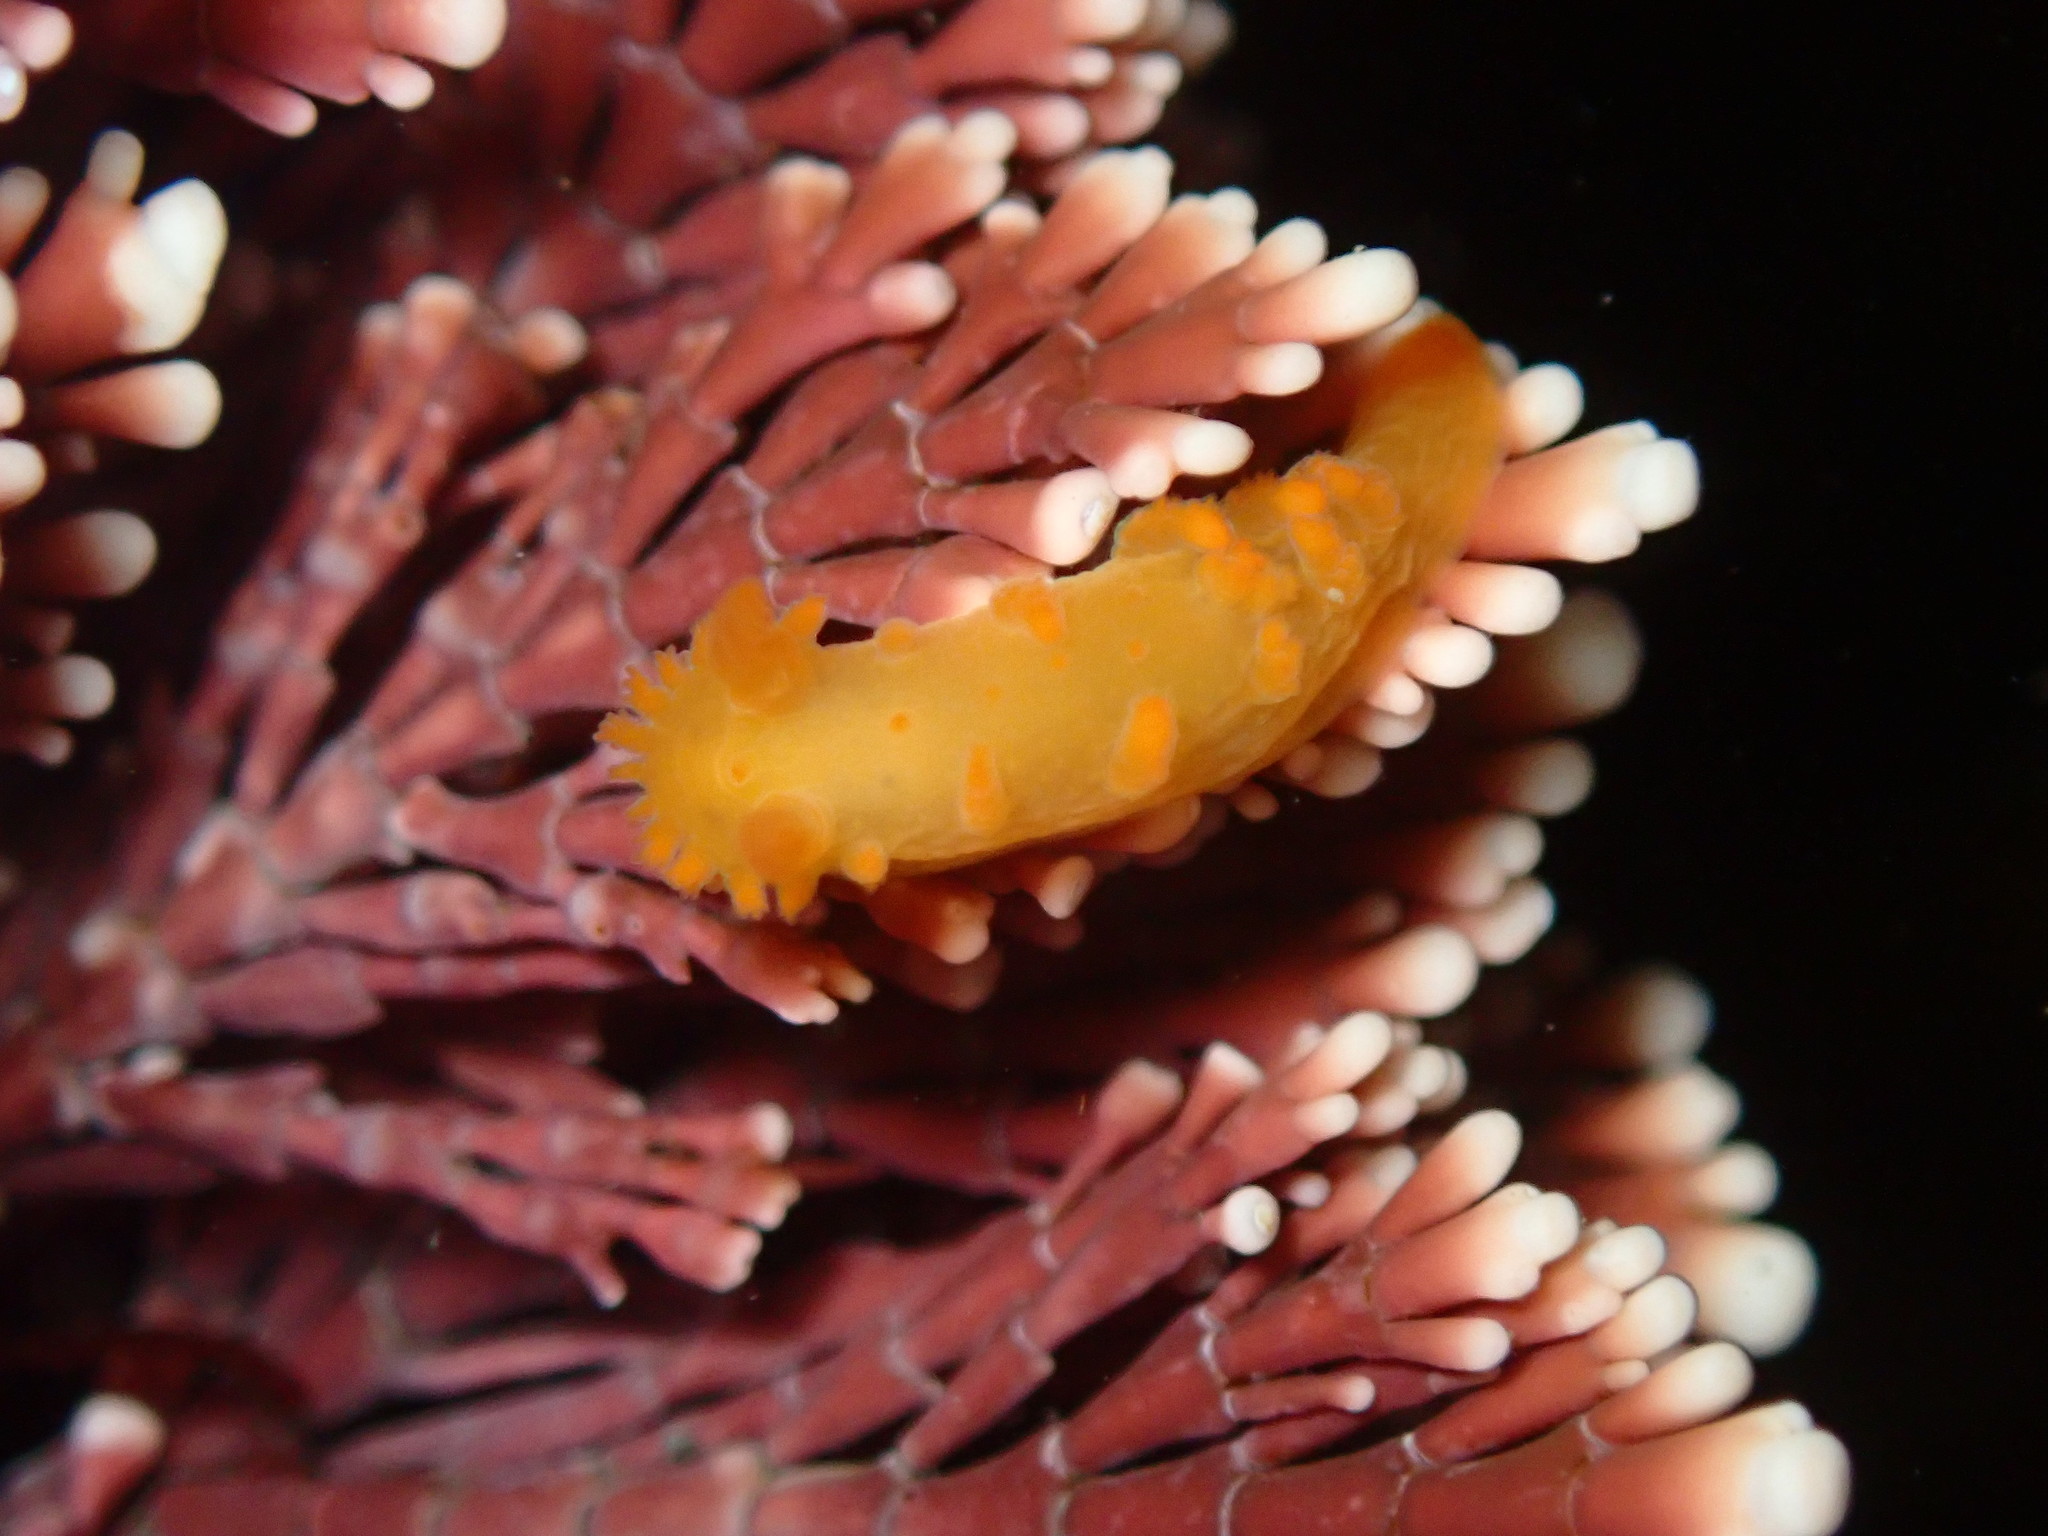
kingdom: Animalia
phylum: Mollusca
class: Gastropoda
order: Nudibranchia
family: Polyceridae
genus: Triopha
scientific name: Triopha maculata
